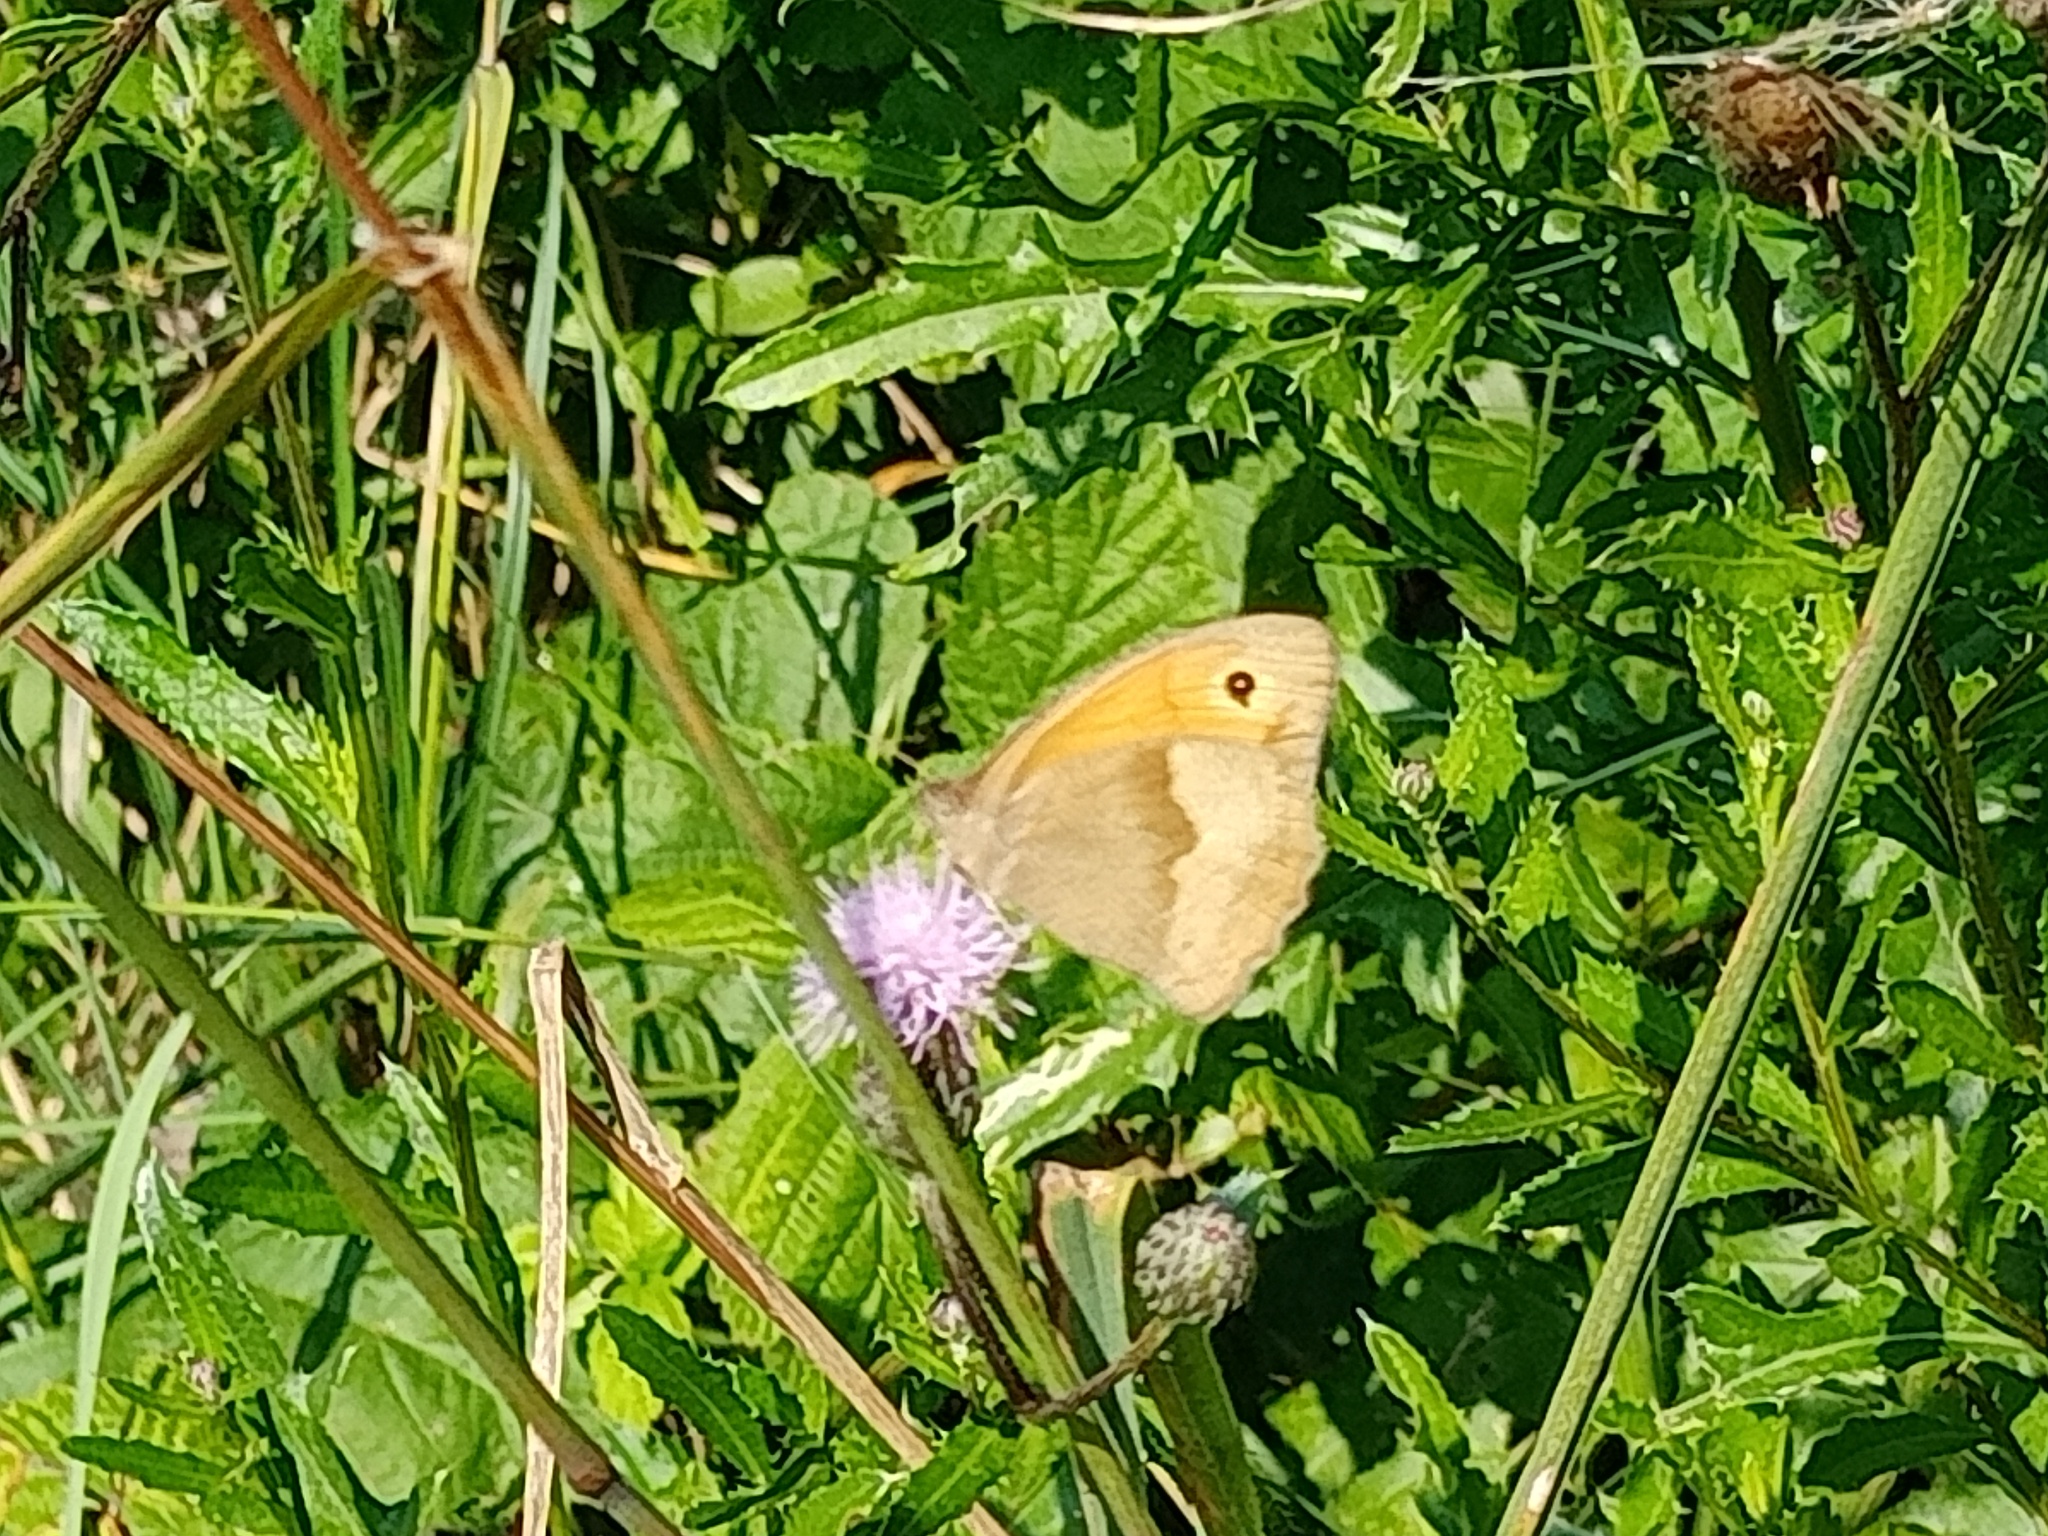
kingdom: Animalia
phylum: Arthropoda
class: Insecta
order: Lepidoptera
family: Nymphalidae
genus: Maniola
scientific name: Maniola jurtina
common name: Meadow brown
